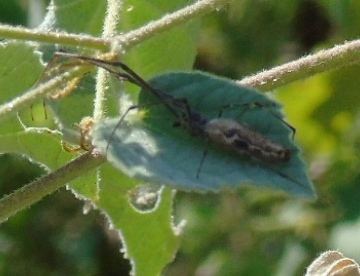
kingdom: Animalia
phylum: Arthropoda
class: Arachnida
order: Araneae
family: Tetragnathidae
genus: Tetragnatha
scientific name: Tetragnatha
